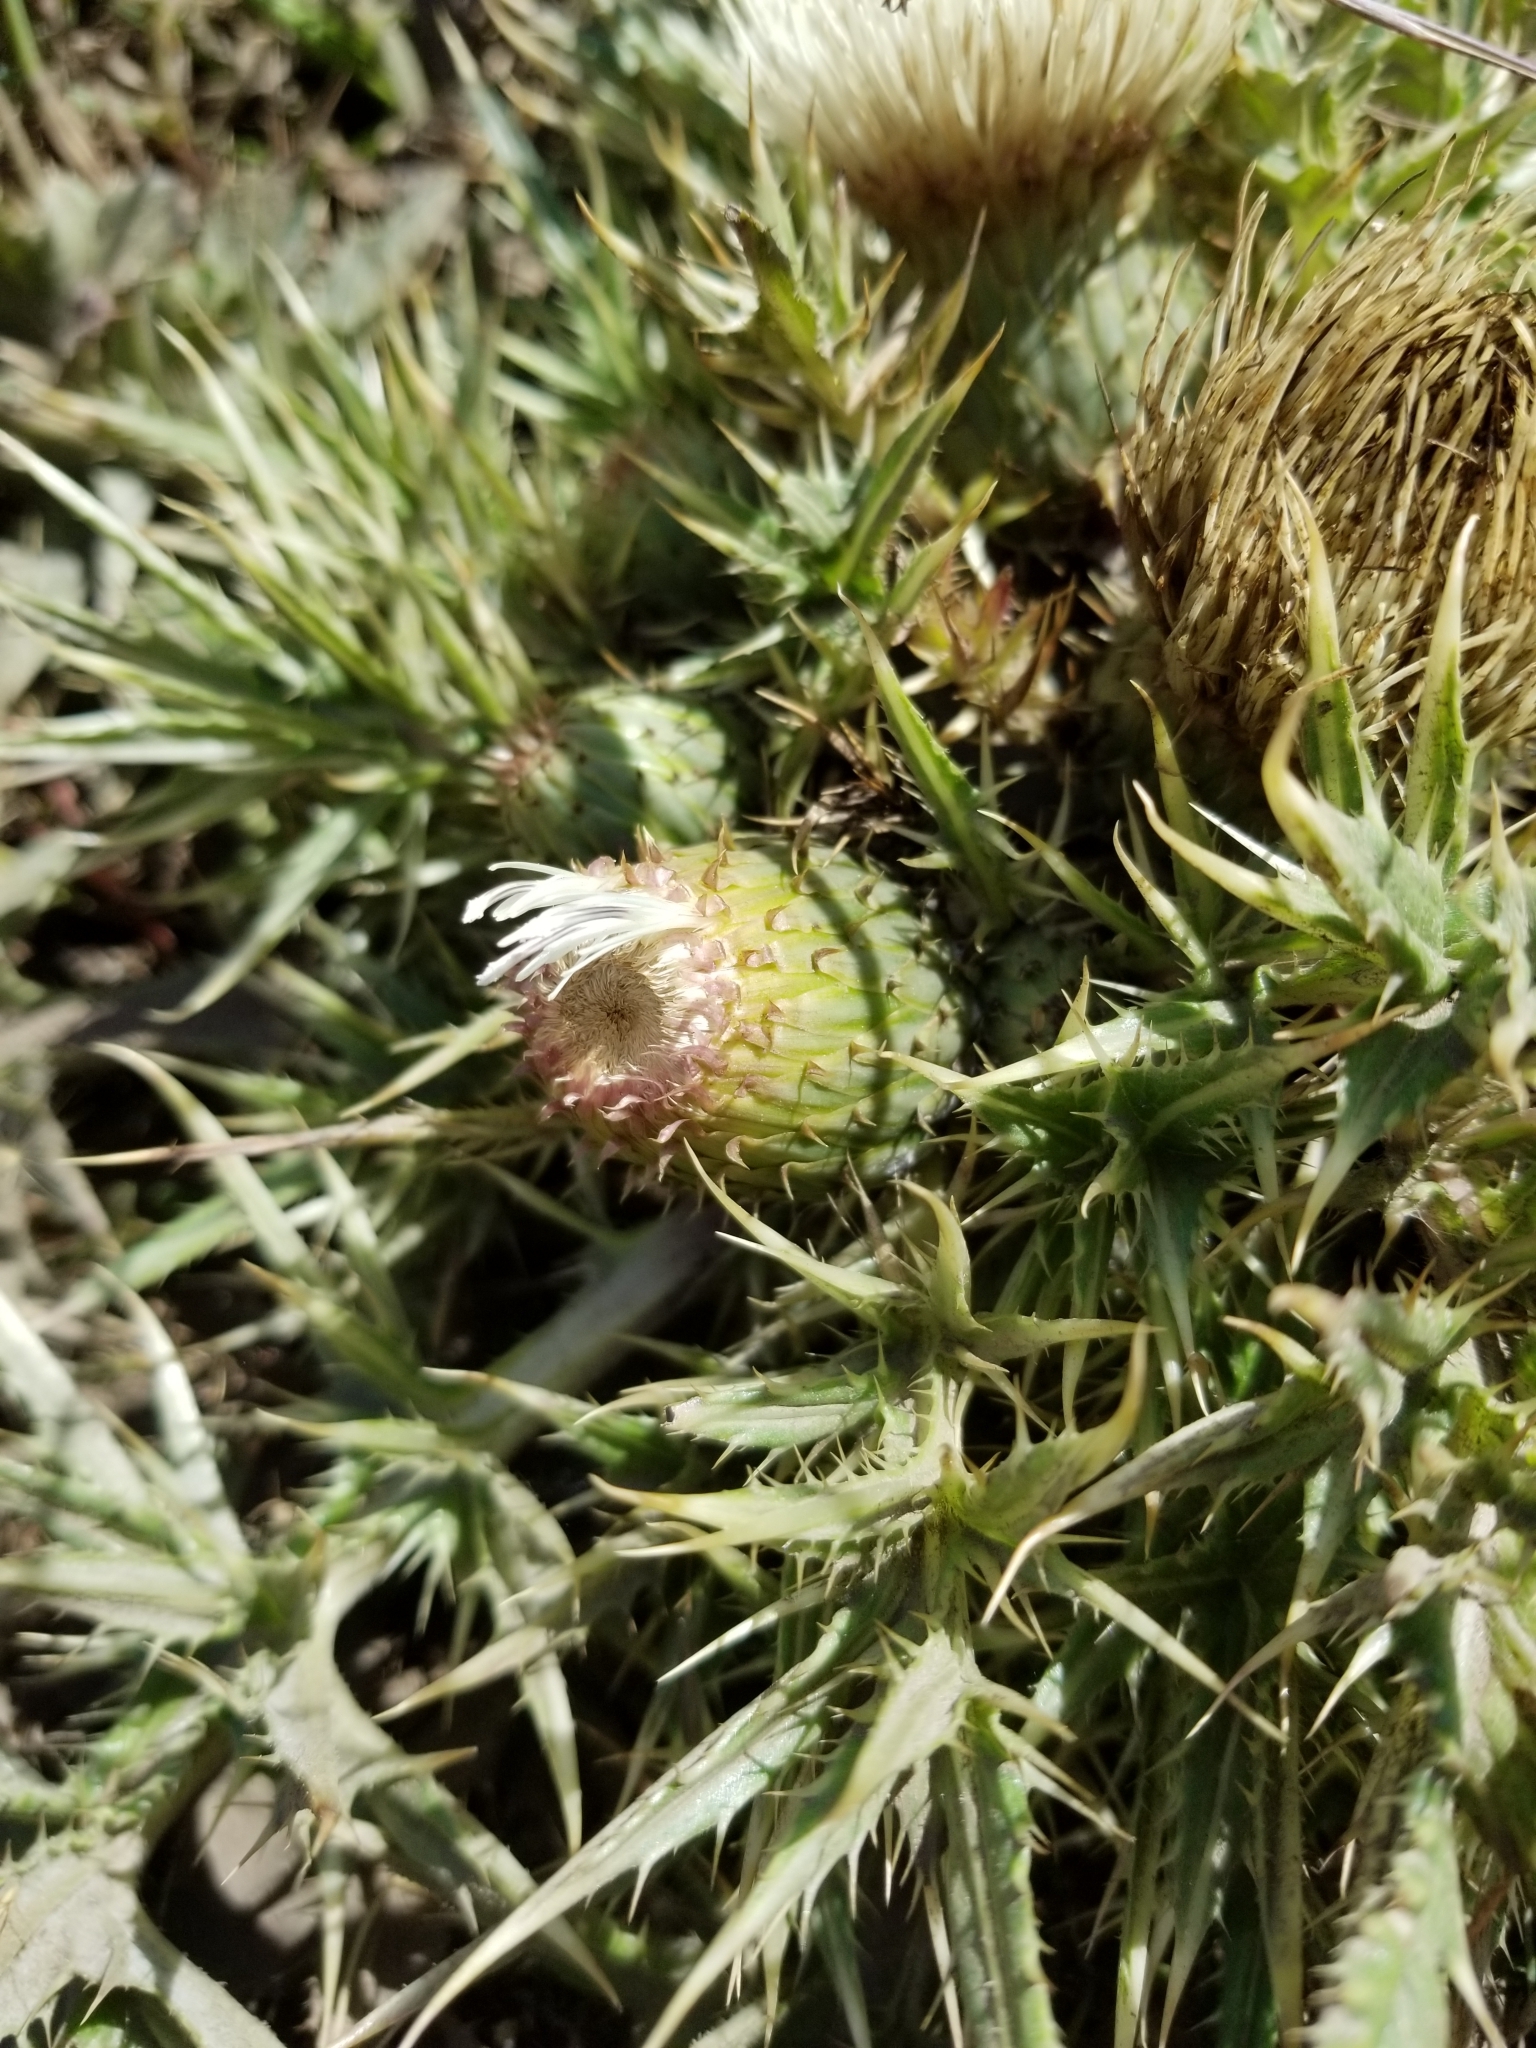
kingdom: Plantae
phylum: Tracheophyta
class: Magnoliopsida
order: Asterales
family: Asteraceae
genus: Cirsium
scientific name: Cirsium quercetorum
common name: Alameda county thistle
